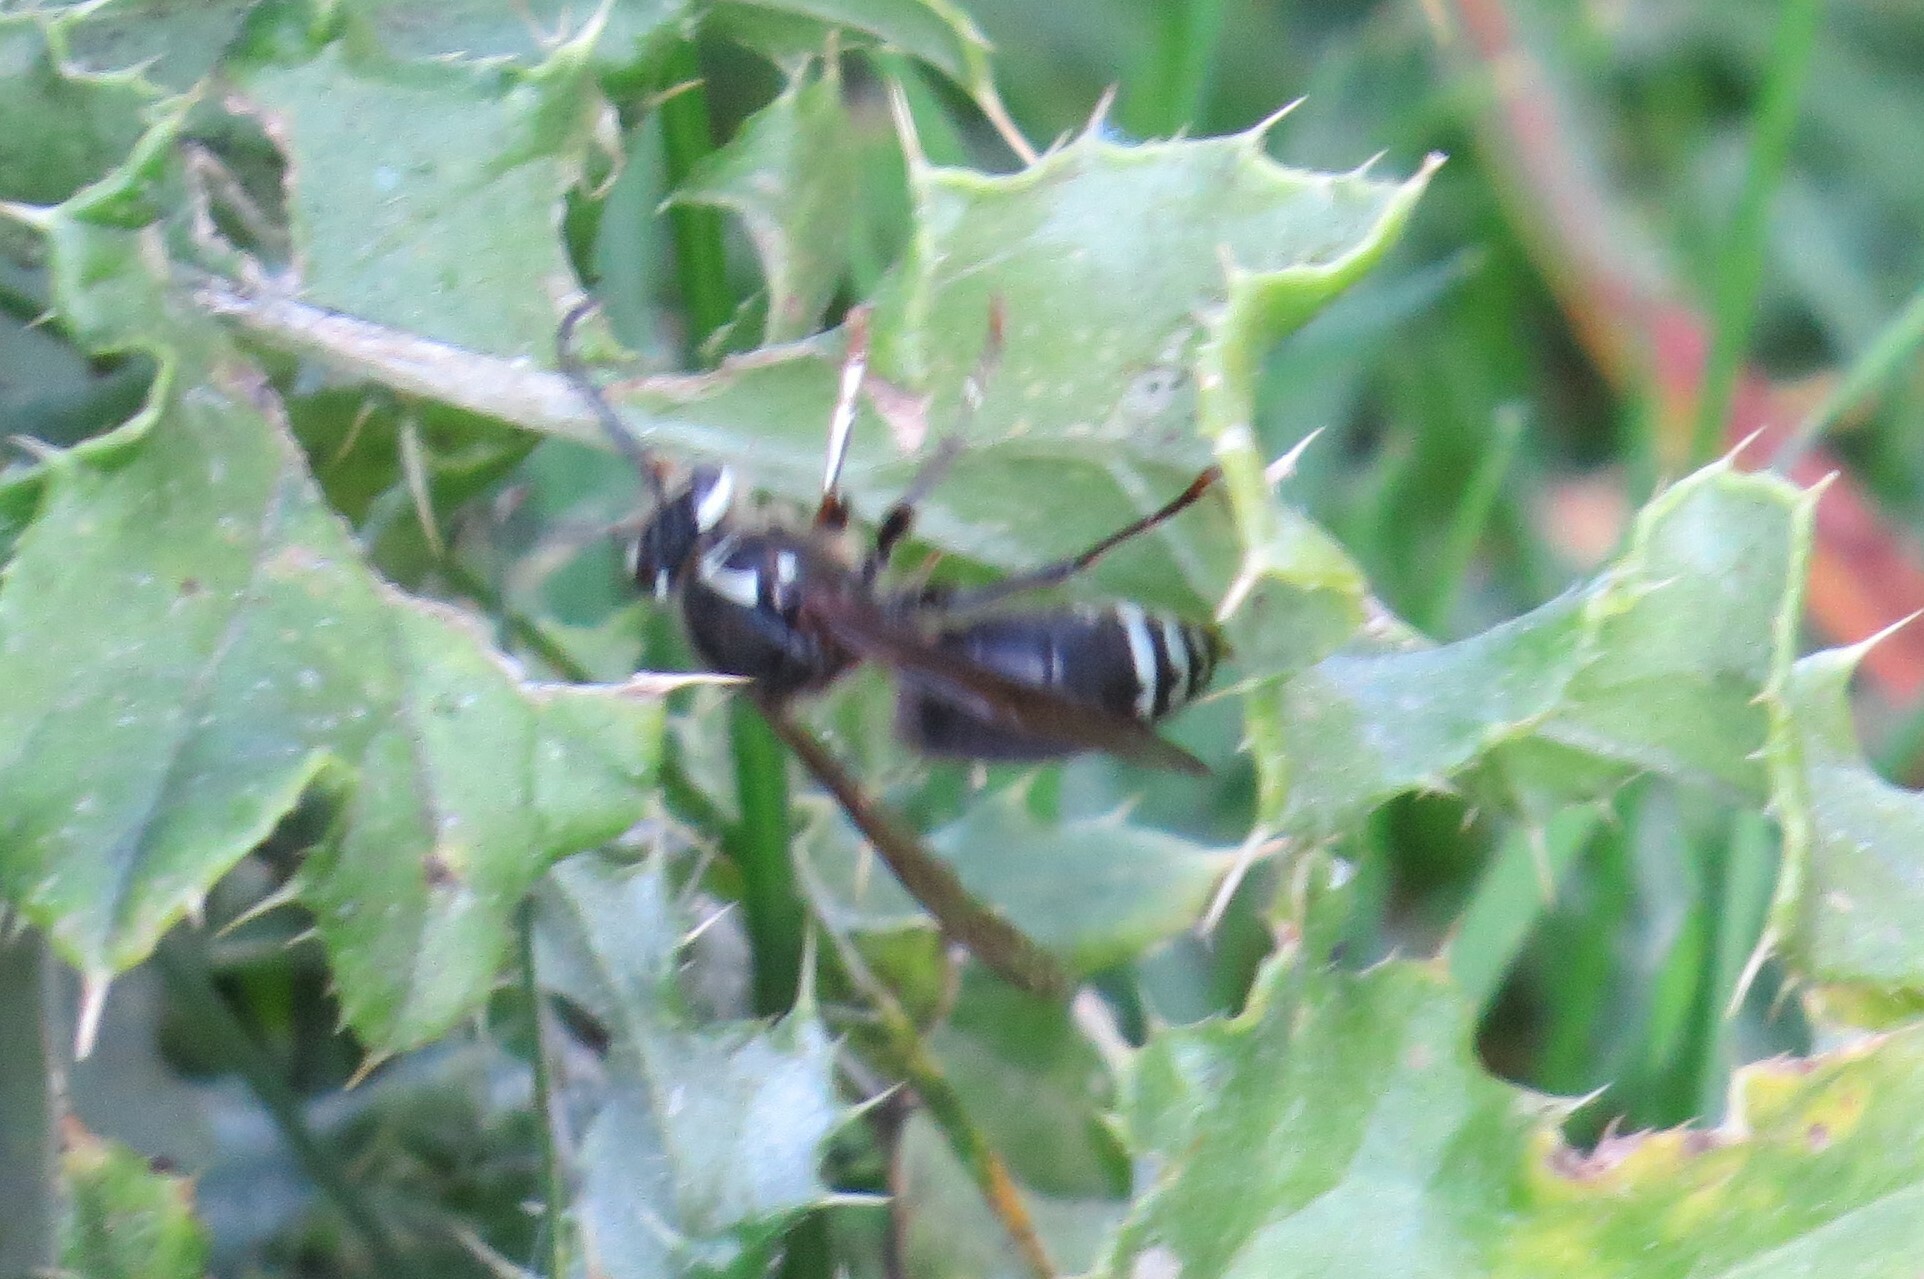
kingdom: Animalia
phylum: Arthropoda
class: Insecta
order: Hymenoptera
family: Vespidae
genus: Dolichovespula
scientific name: Dolichovespula maculata
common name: Bald-faced hornet
